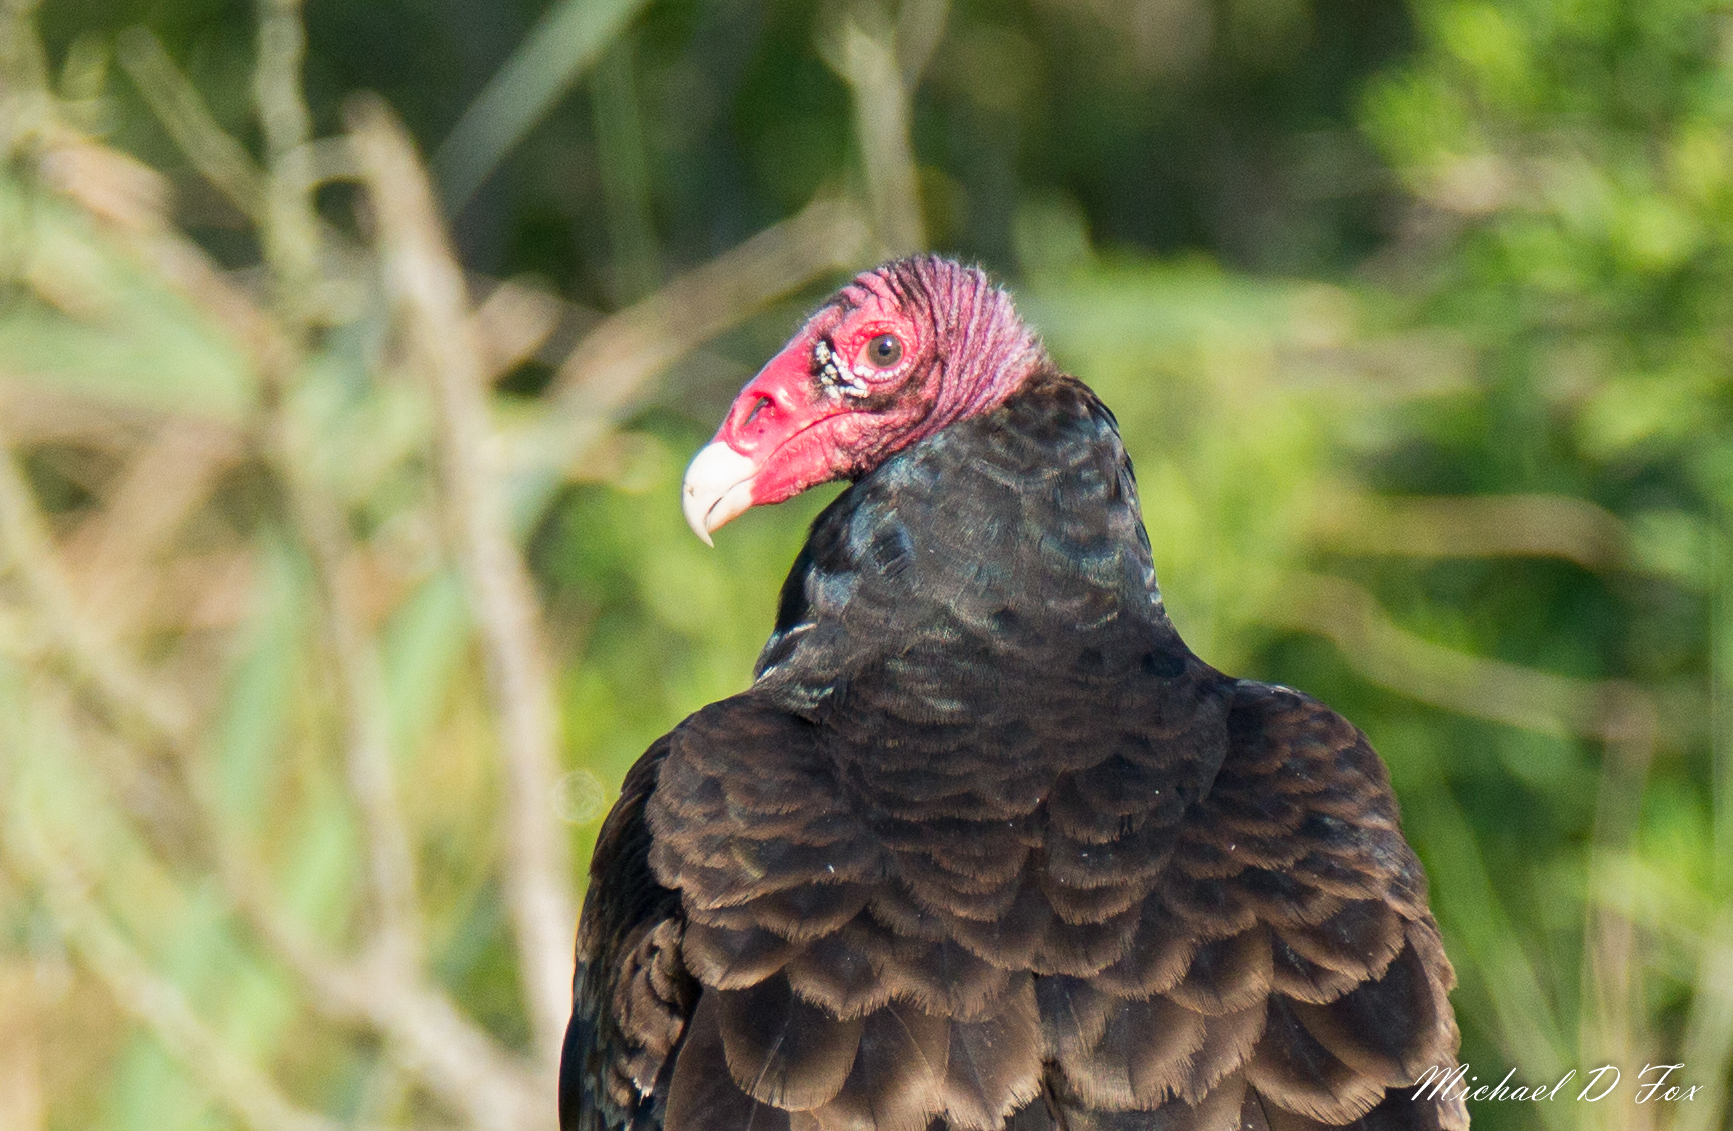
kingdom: Animalia
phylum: Chordata
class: Aves
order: Accipitriformes
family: Cathartidae
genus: Cathartes
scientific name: Cathartes aura
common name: Turkey vulture
